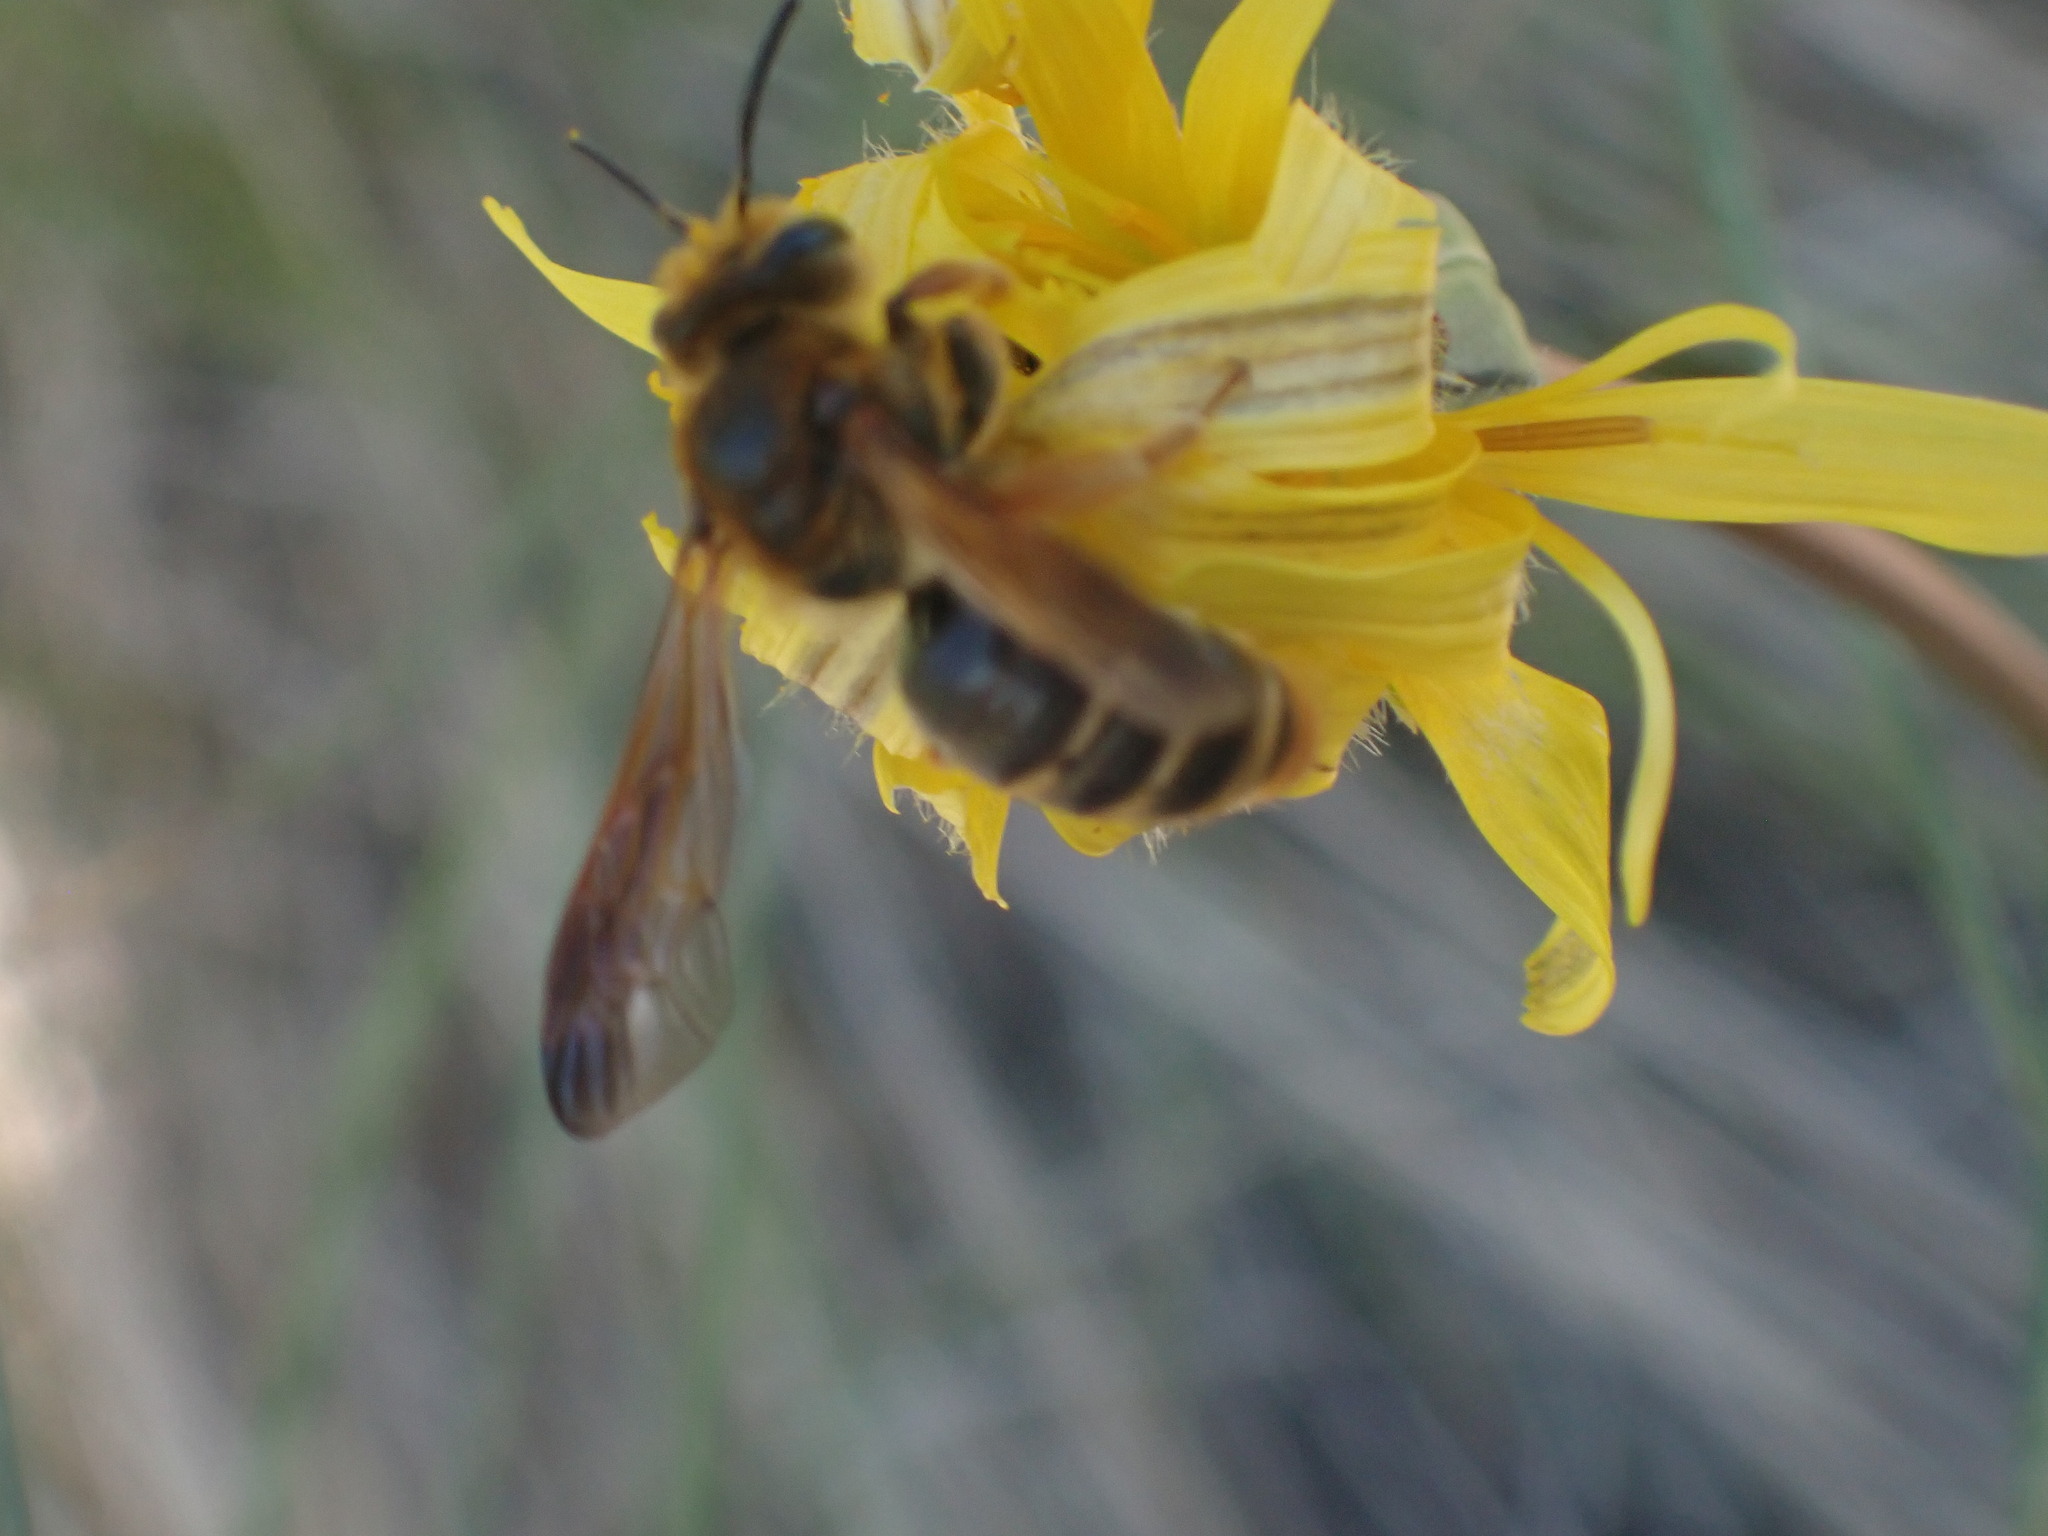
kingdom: Animalia
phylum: Arthropoda
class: Insecta
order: Hymenoptera
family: Andrenidae
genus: Andrena
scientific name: Andrena prunorum
